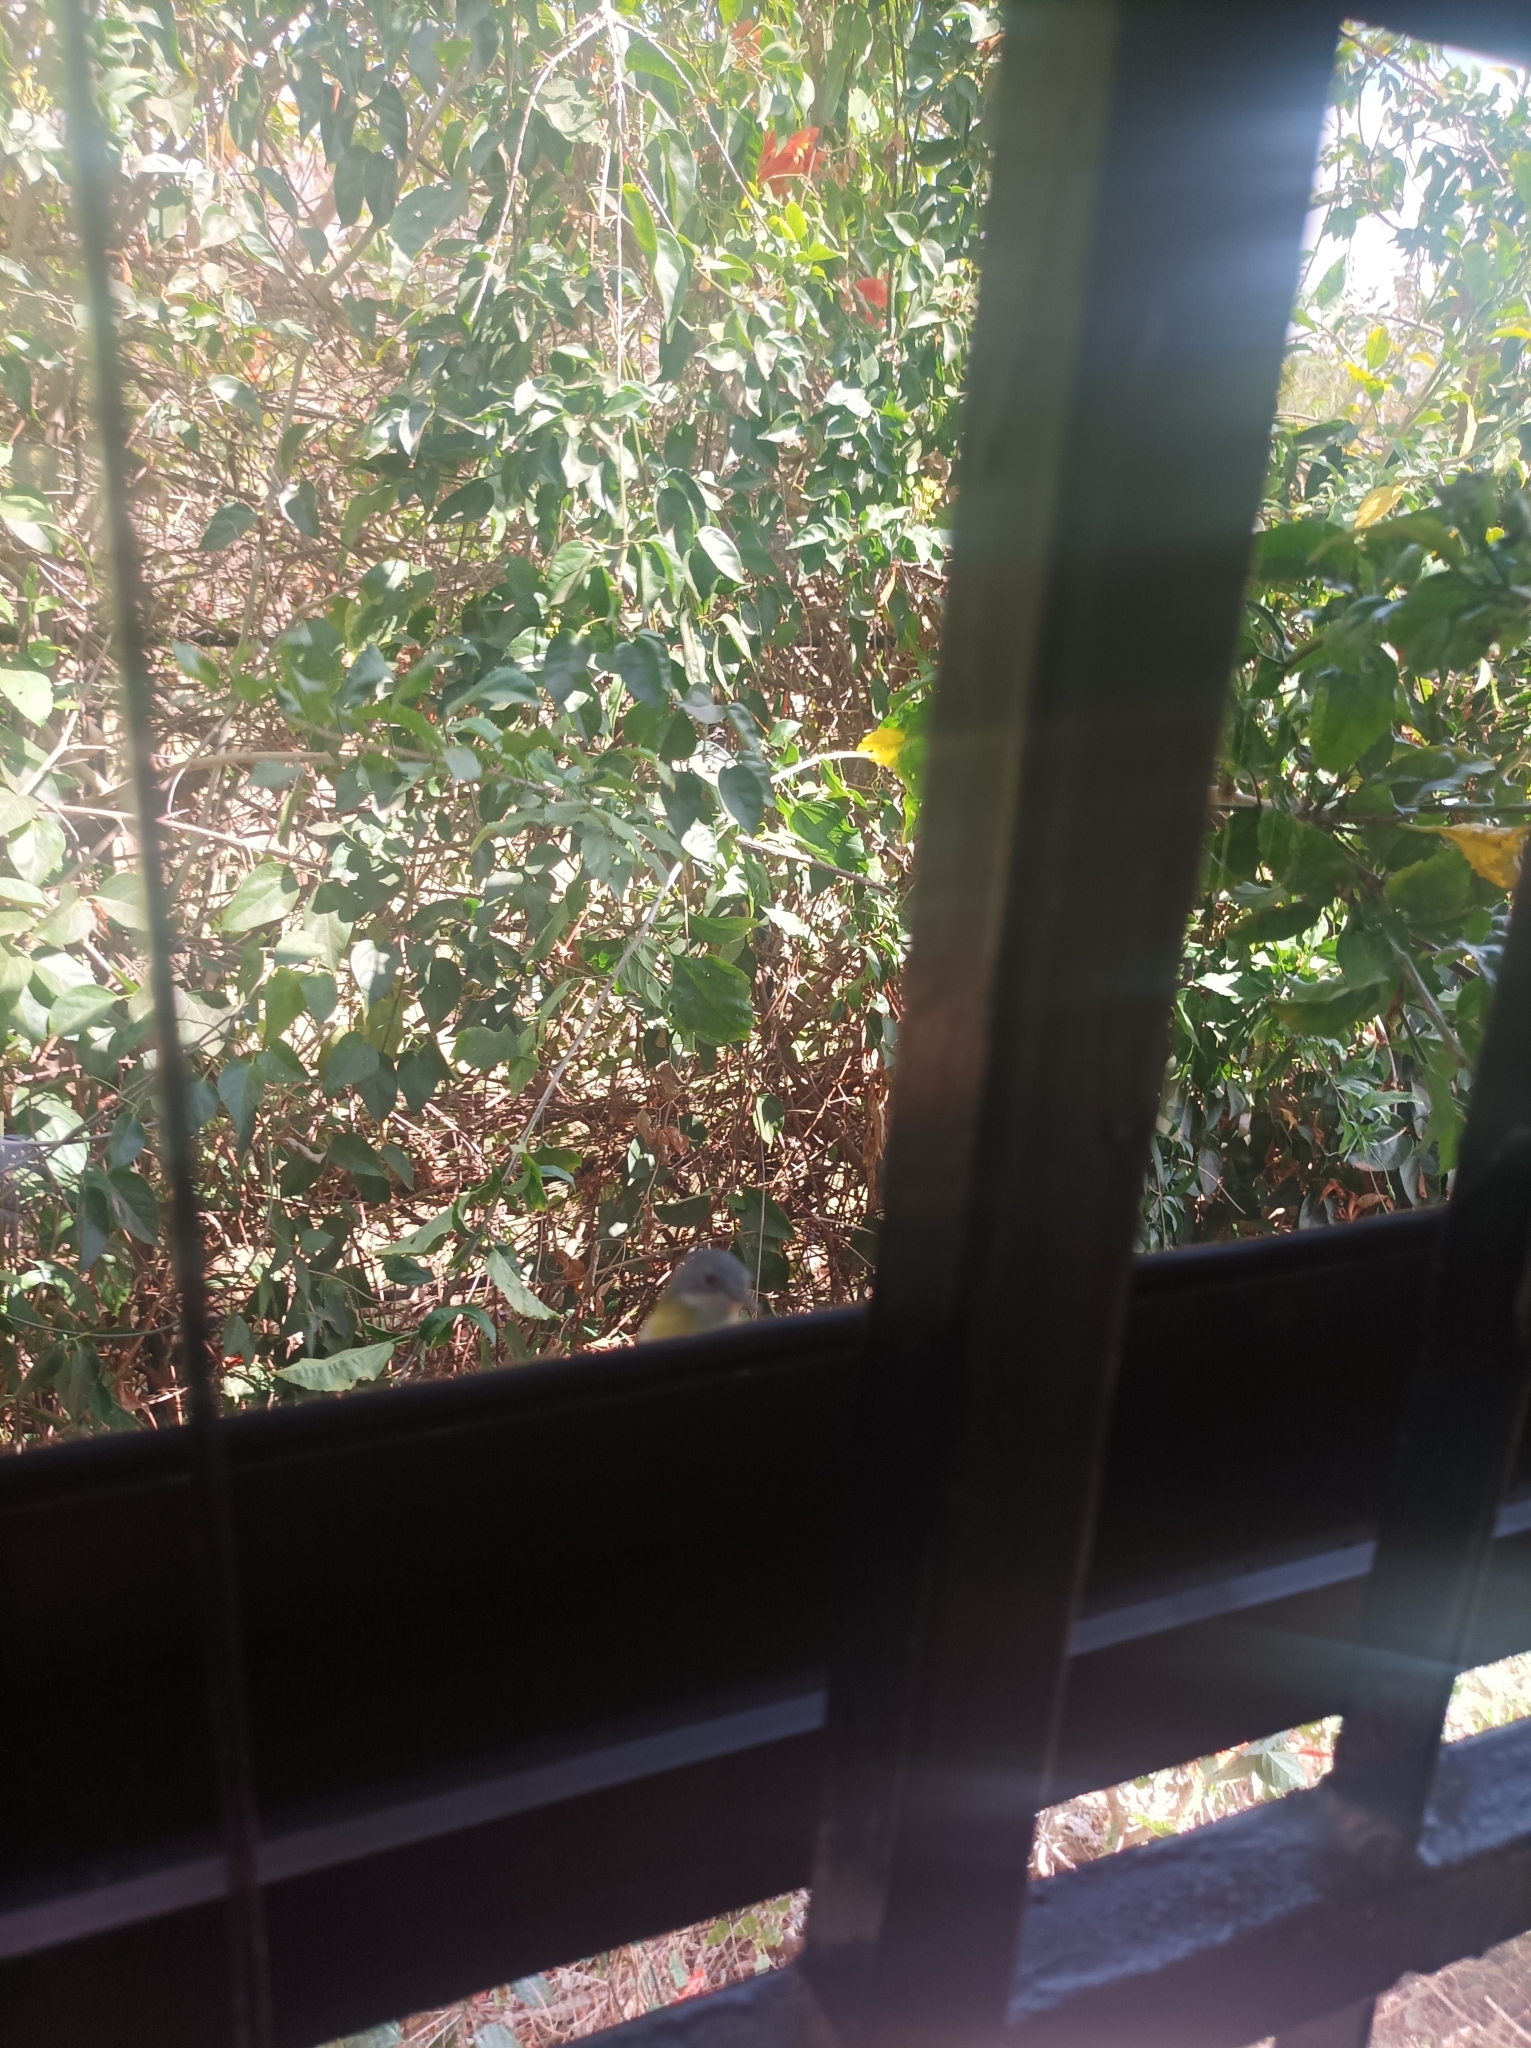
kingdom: Animalia
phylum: Chordata
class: Aves
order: Passeriformes
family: Cisticolidae
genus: Apalis
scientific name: Apalis flavida
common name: Yellow-breasted apalis
